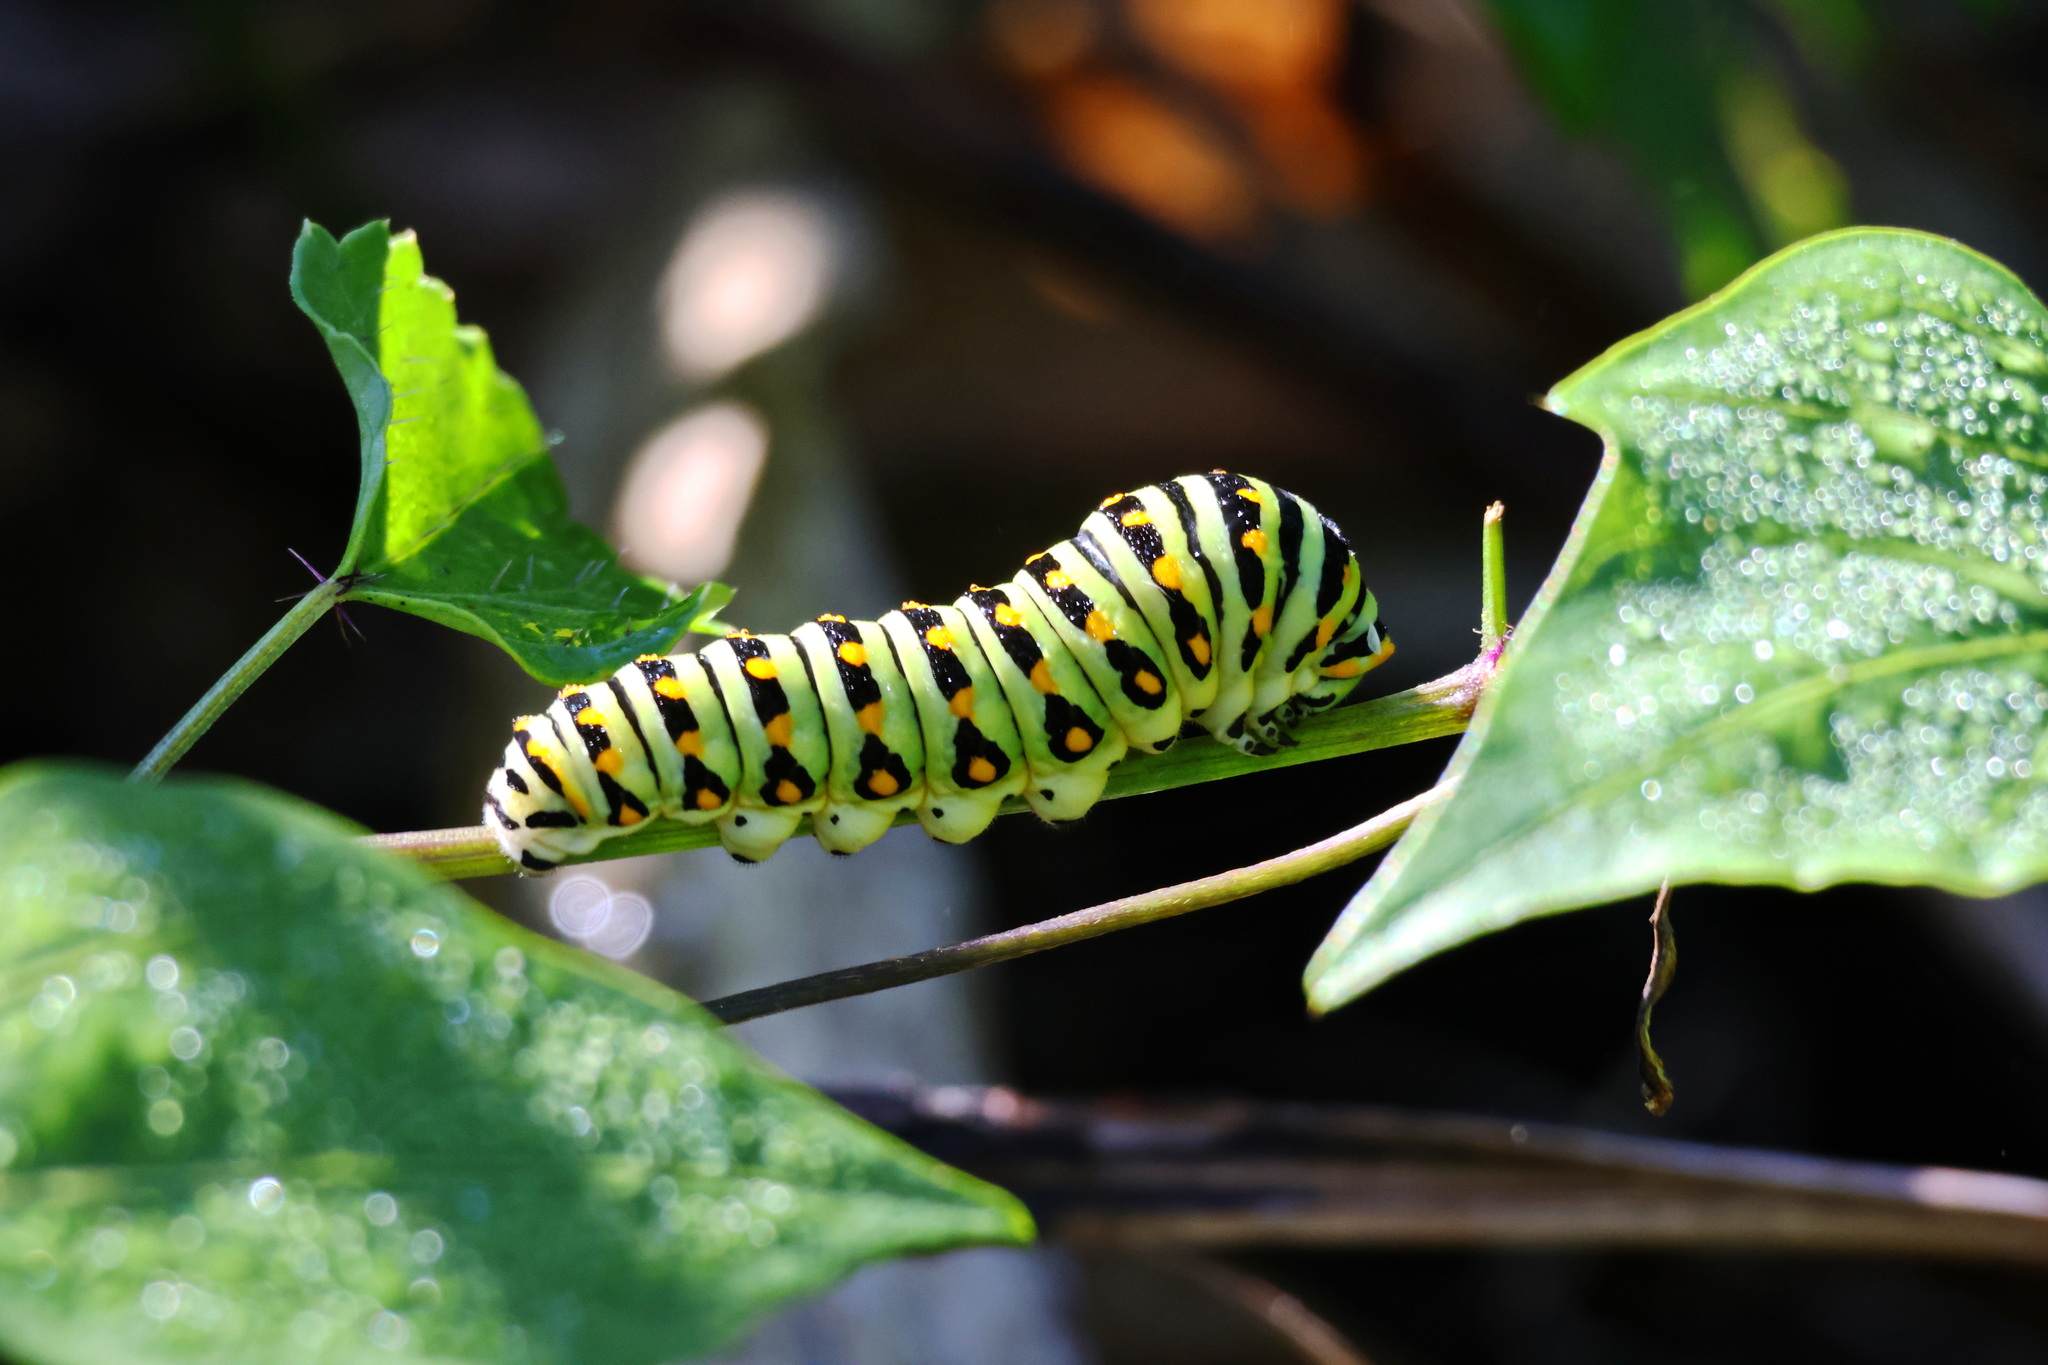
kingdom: Animalia
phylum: Arthropoda
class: Insecta
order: Lepidoptera
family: Papilionidae
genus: Papilio
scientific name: Papilio polyxenes
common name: Black swallowtail
